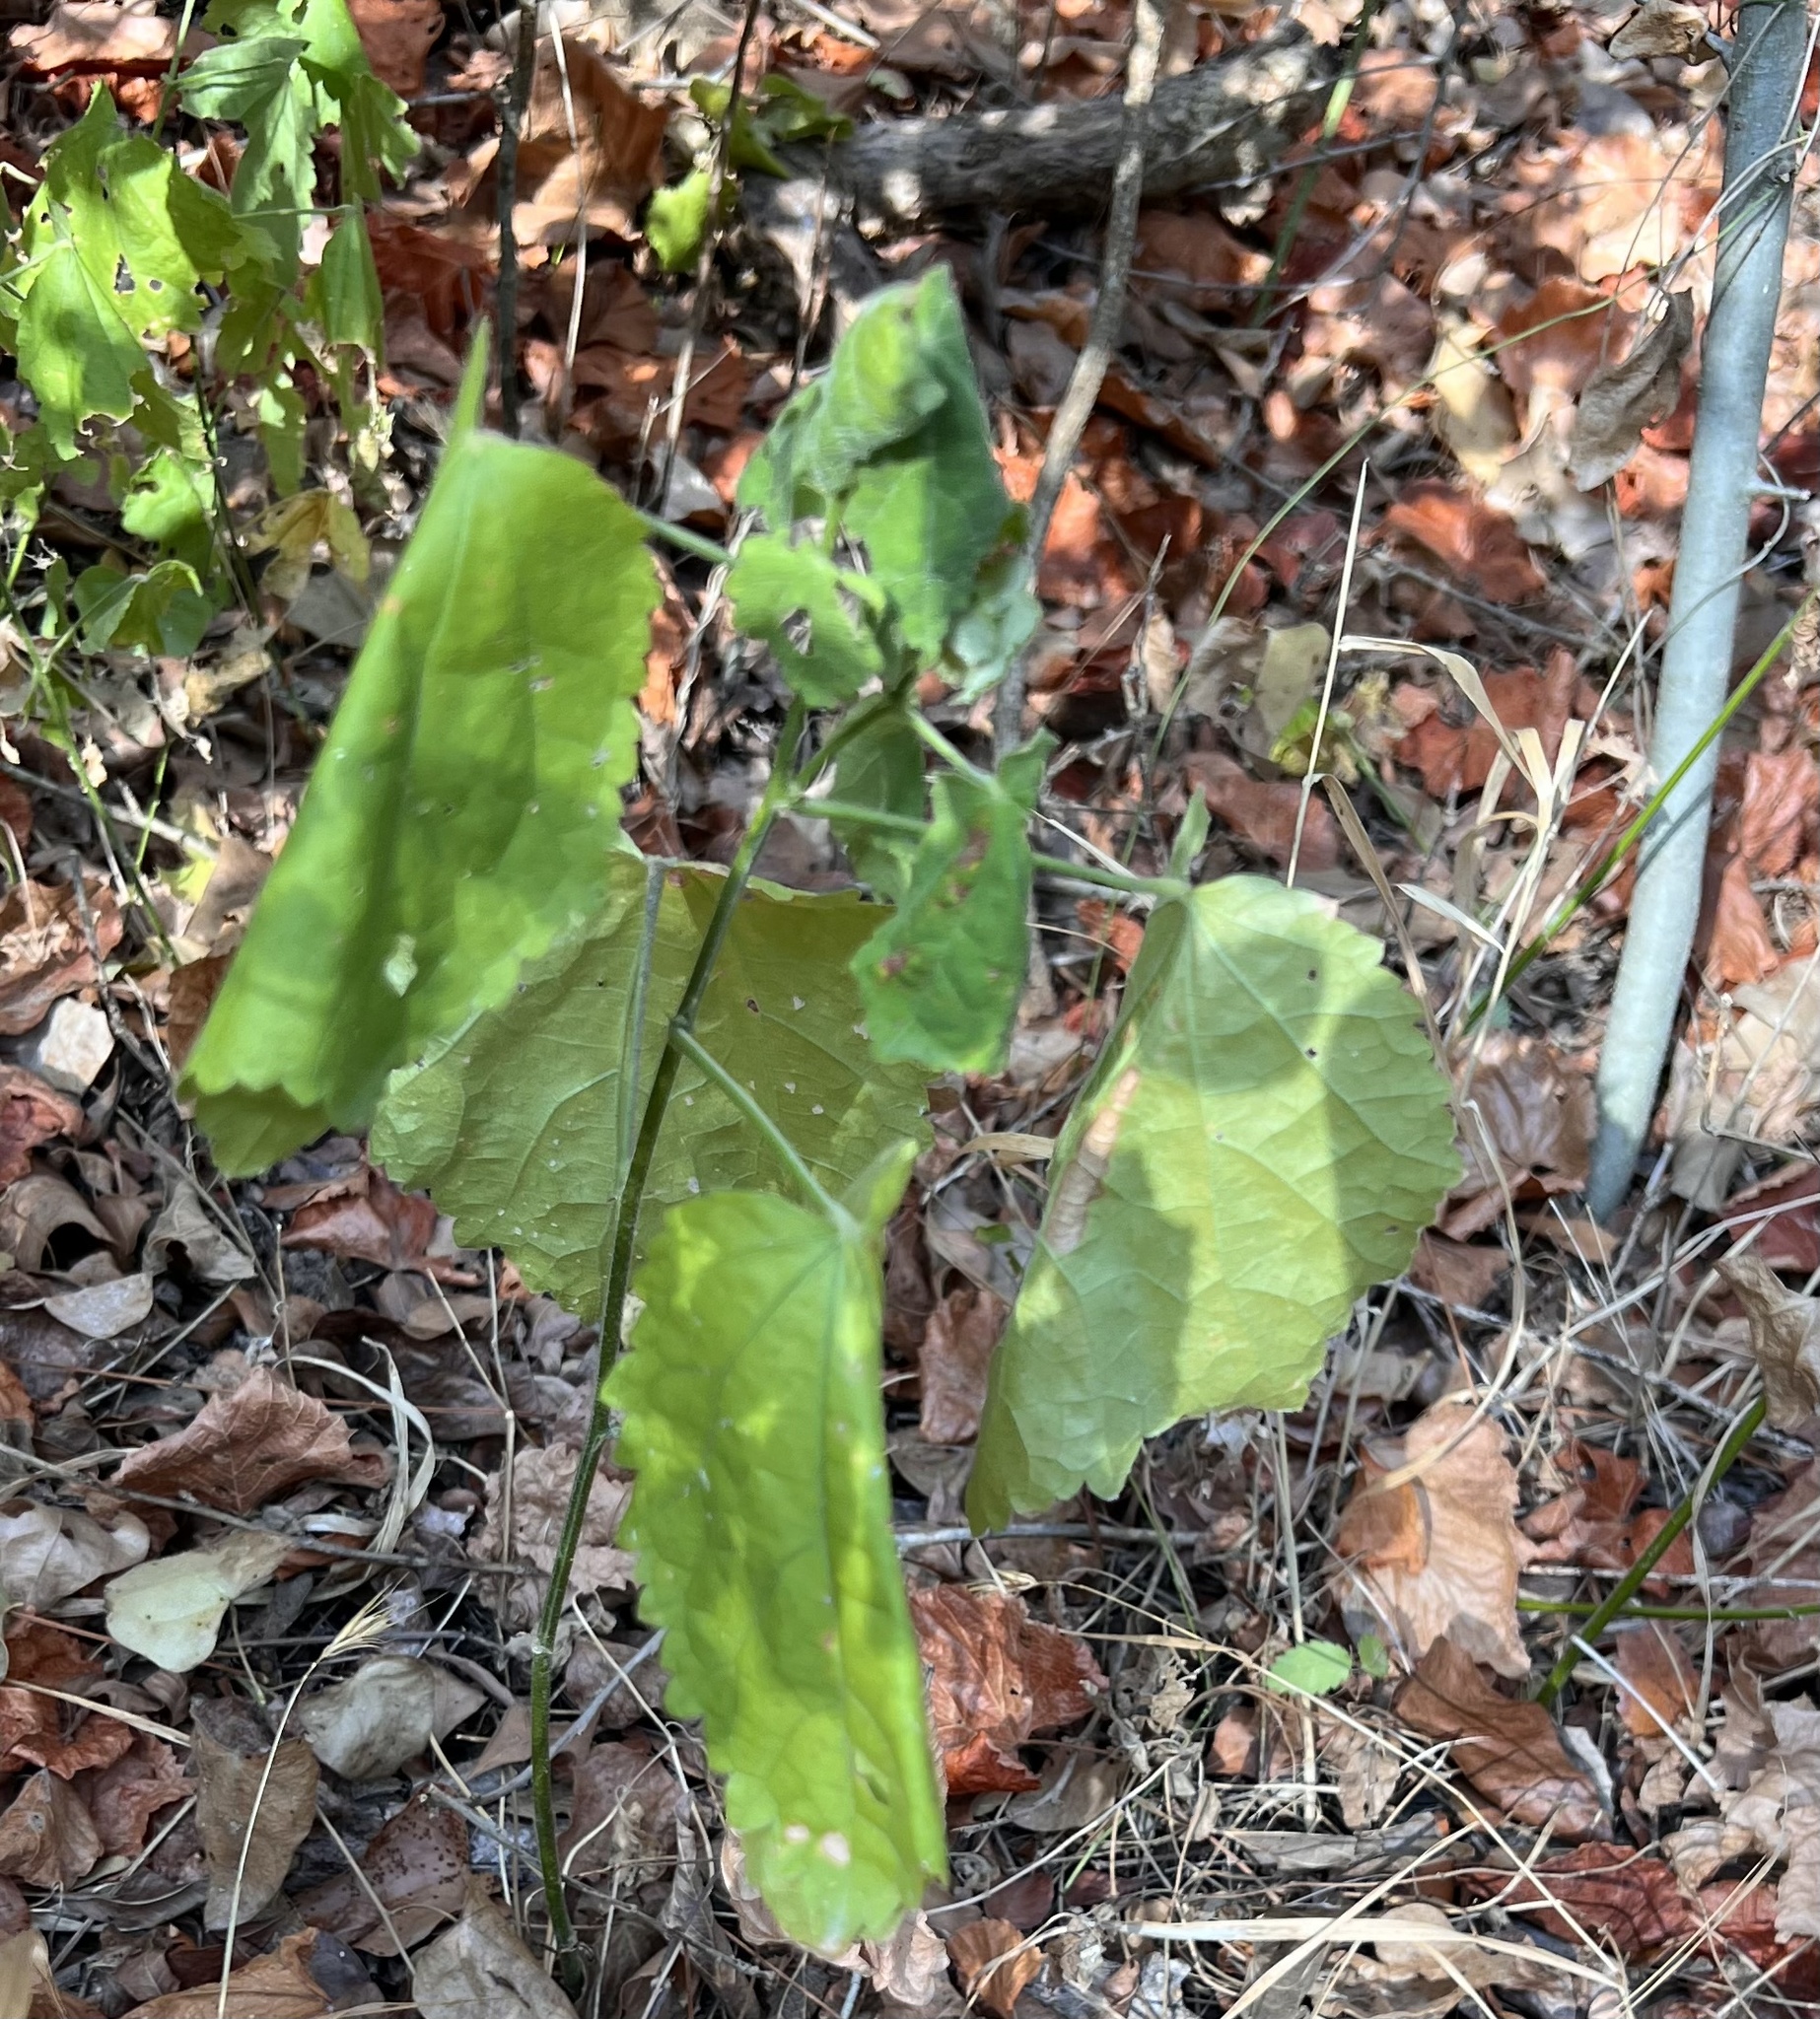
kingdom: Plantae
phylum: Tracheophyta
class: Magnoliopsida
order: Malvales
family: Malvaceae
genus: Malvaviscus
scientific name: Malvaviscus arboreus
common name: Wax mallow
